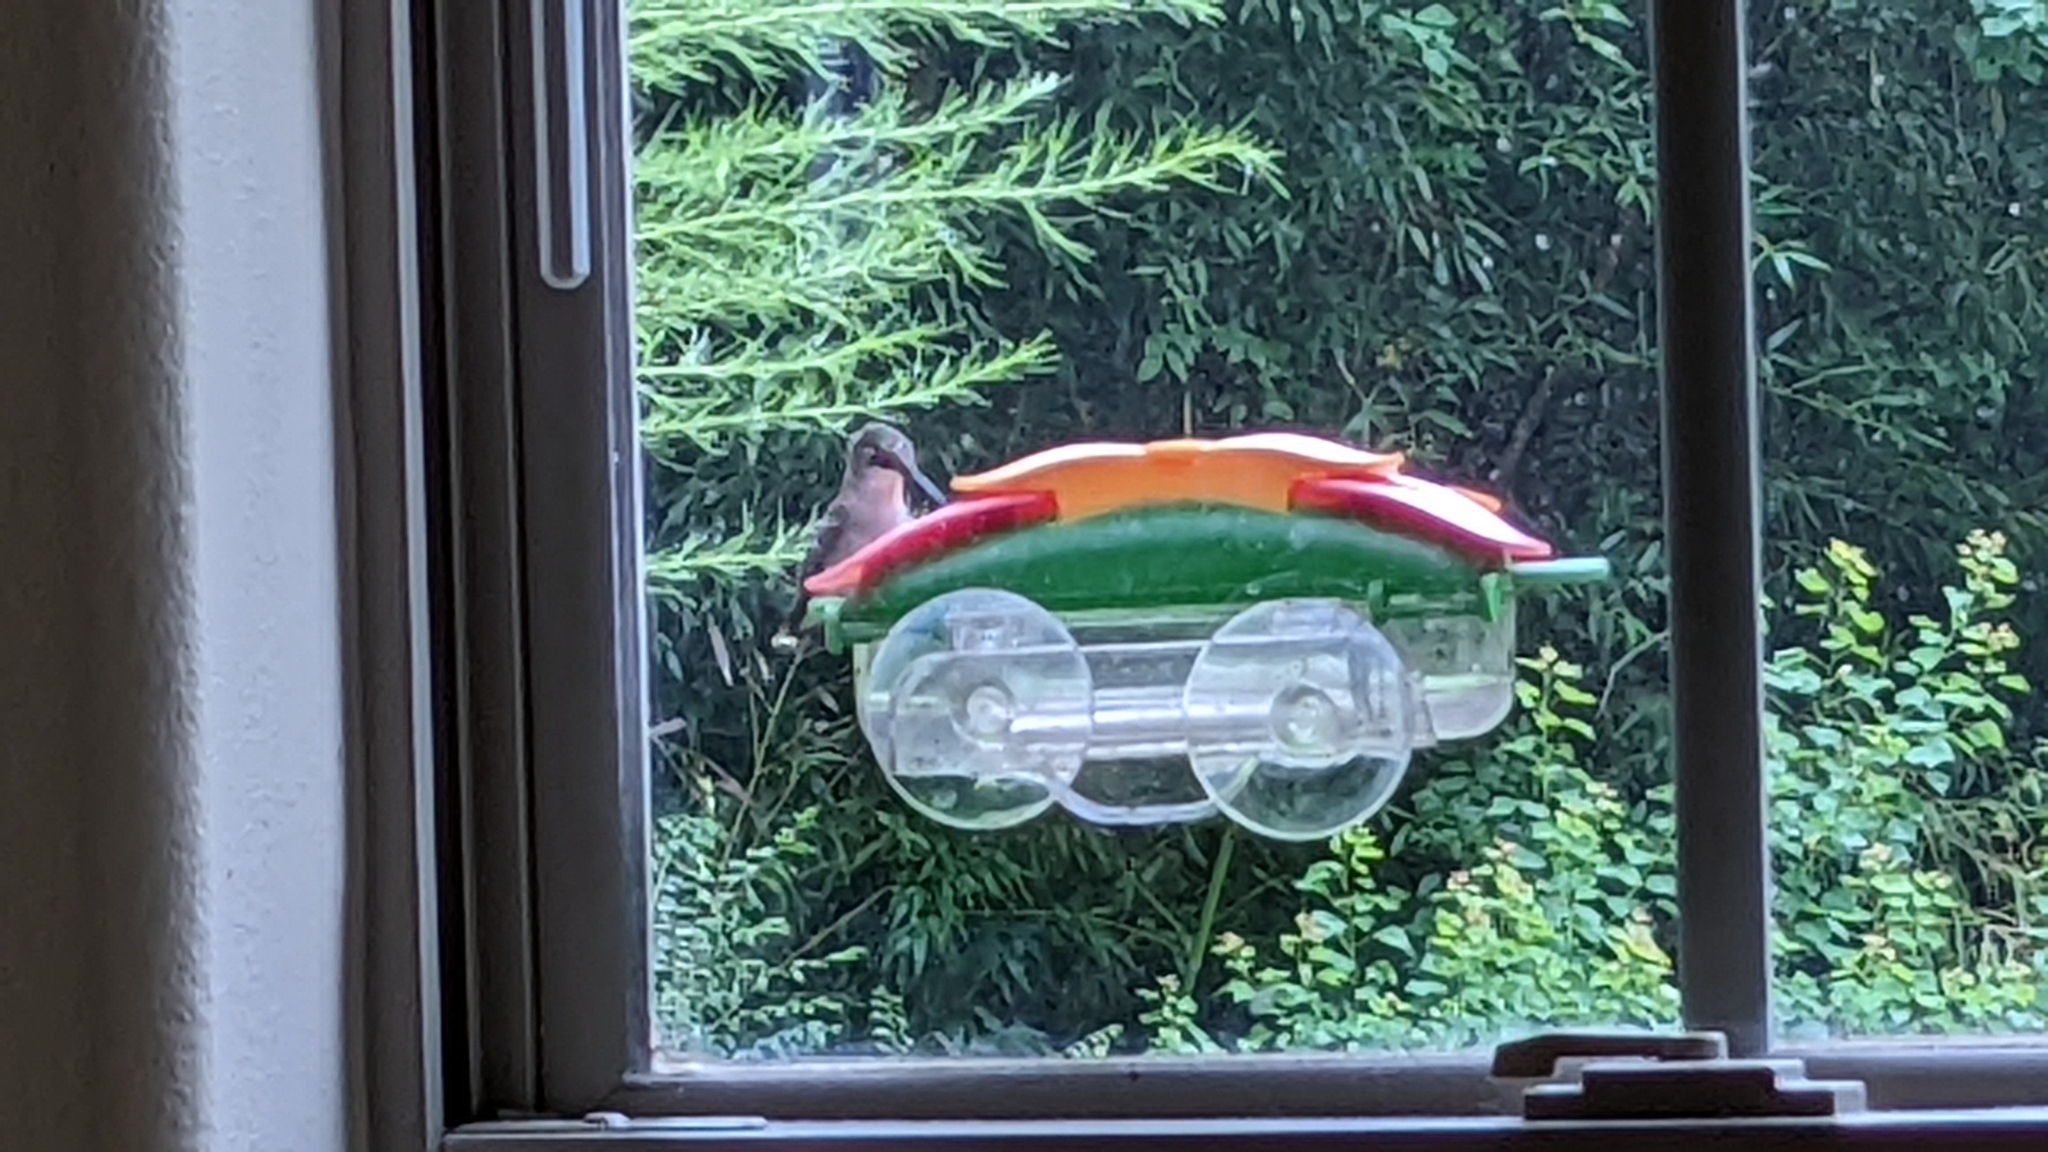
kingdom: Animalia
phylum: Chordata
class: Aves
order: Apodiformes
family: Trochilidae
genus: Archilochus
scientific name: Archilochus colubris
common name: Ruby-throated hummingbird
